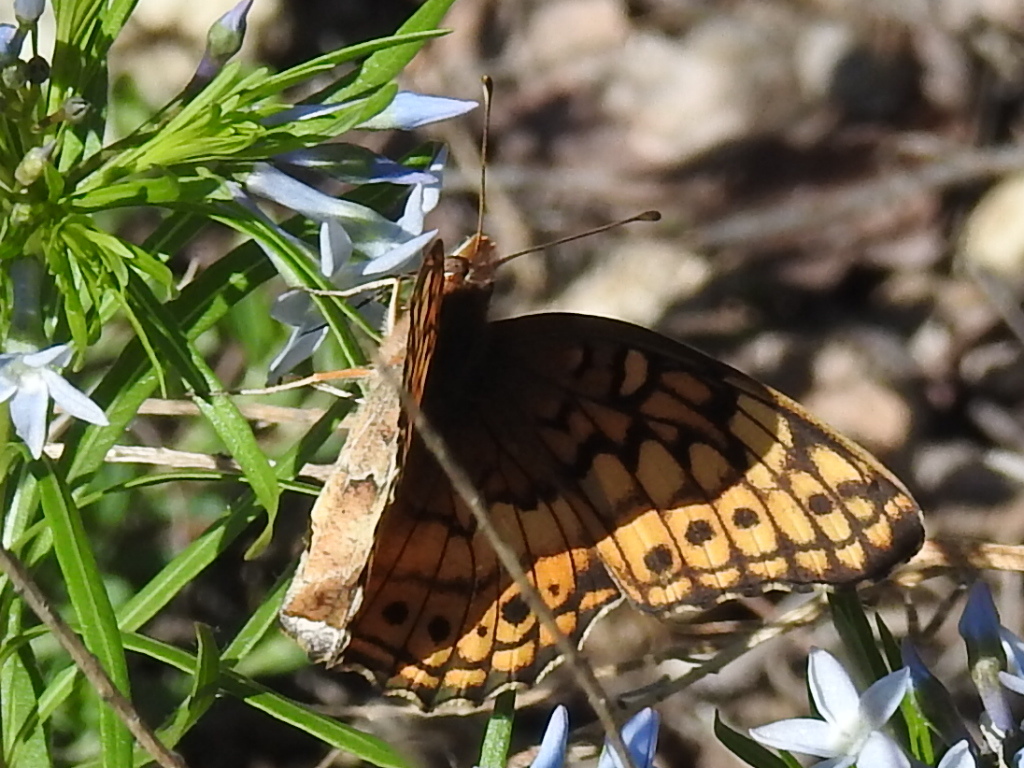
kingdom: Animalia
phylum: Arthropoda
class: Insecta
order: Lepidoptera
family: Nymphalidae
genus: Euptoieta
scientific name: Euptoieta claudia
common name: Variegated fritillary
